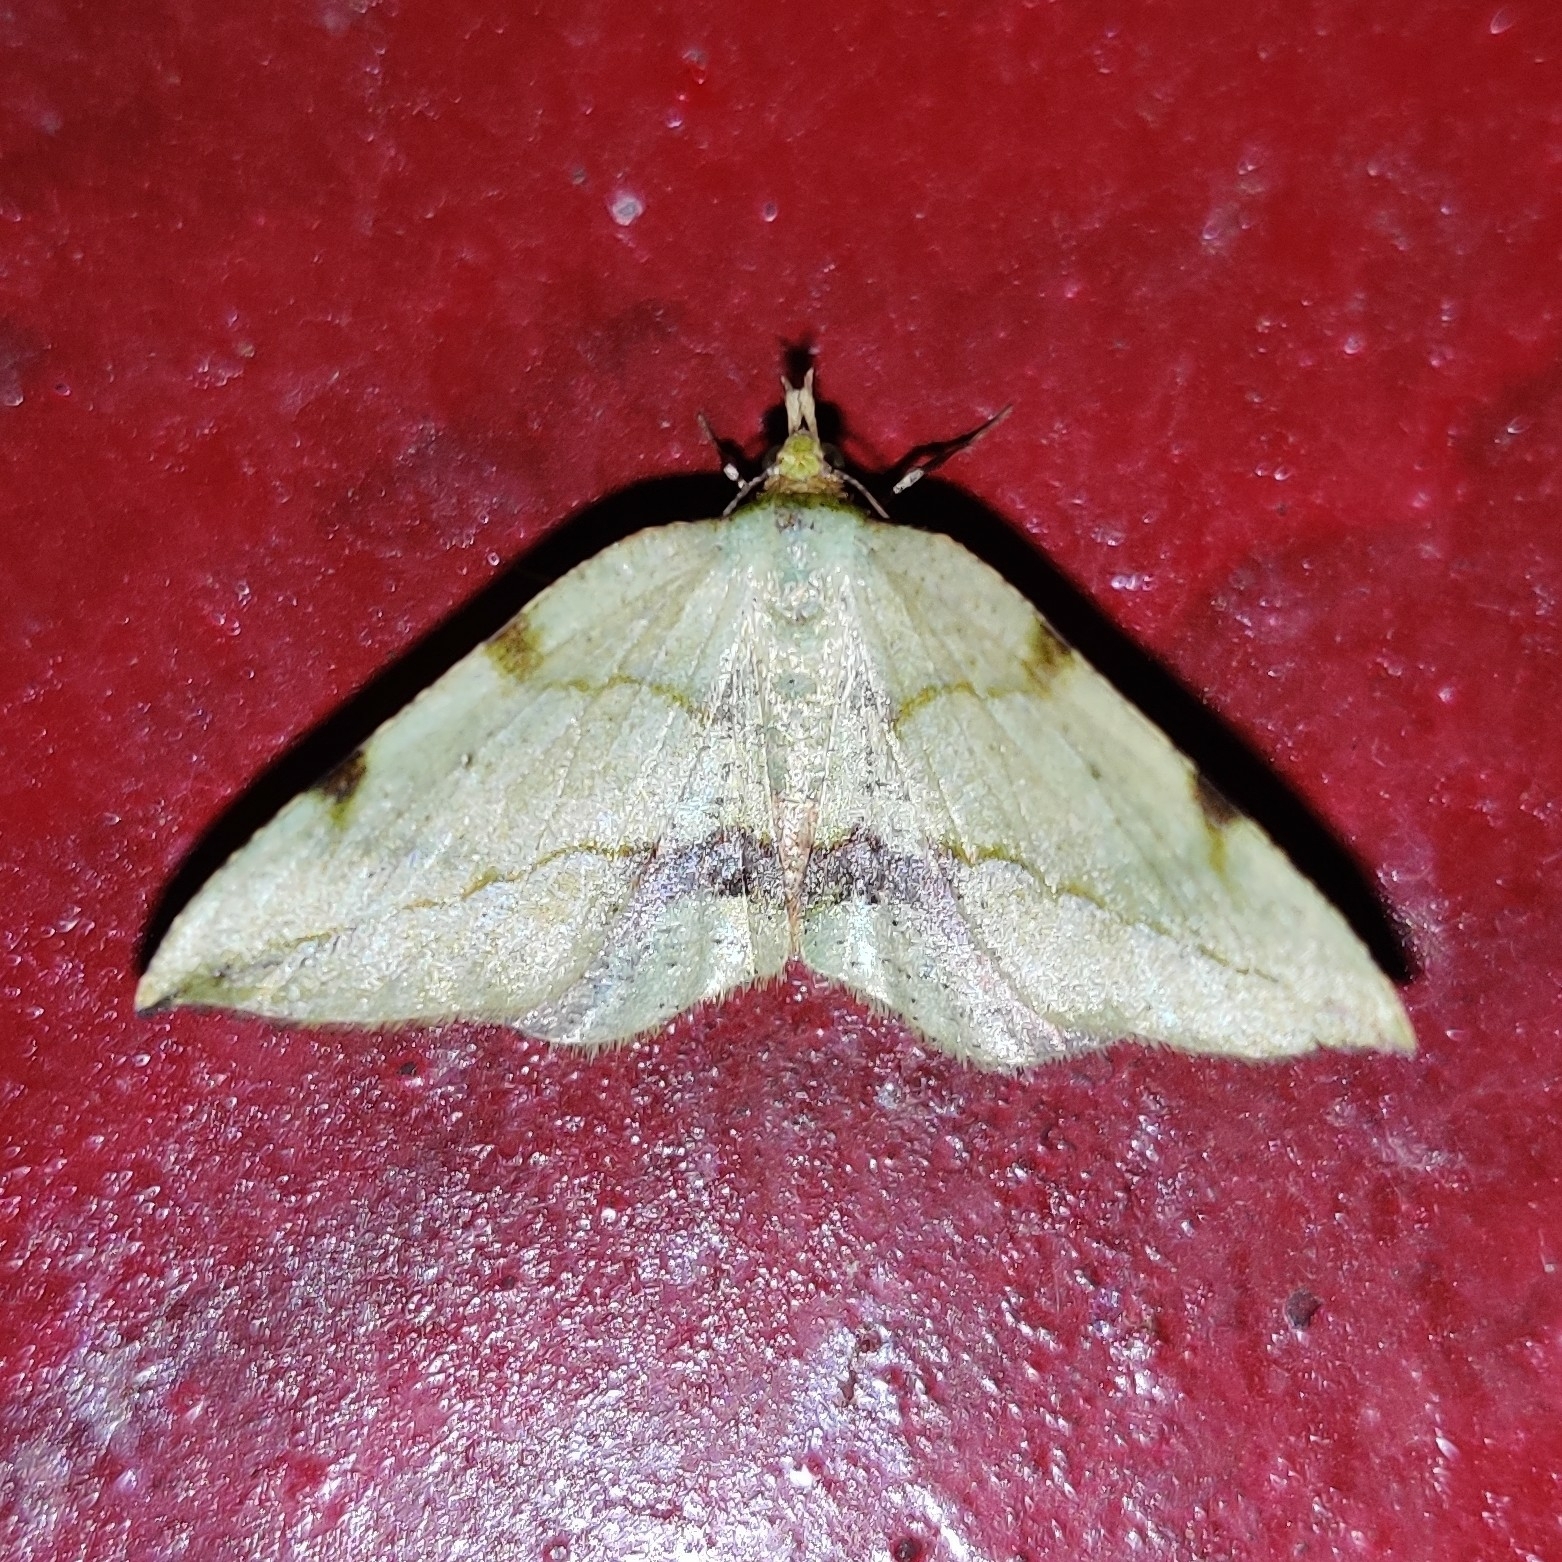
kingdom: Animalia
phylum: Arthropoda
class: Insecta
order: Lepidoptera
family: Geometridae
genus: Apoheterolocha
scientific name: Apoheterolocha patalata
